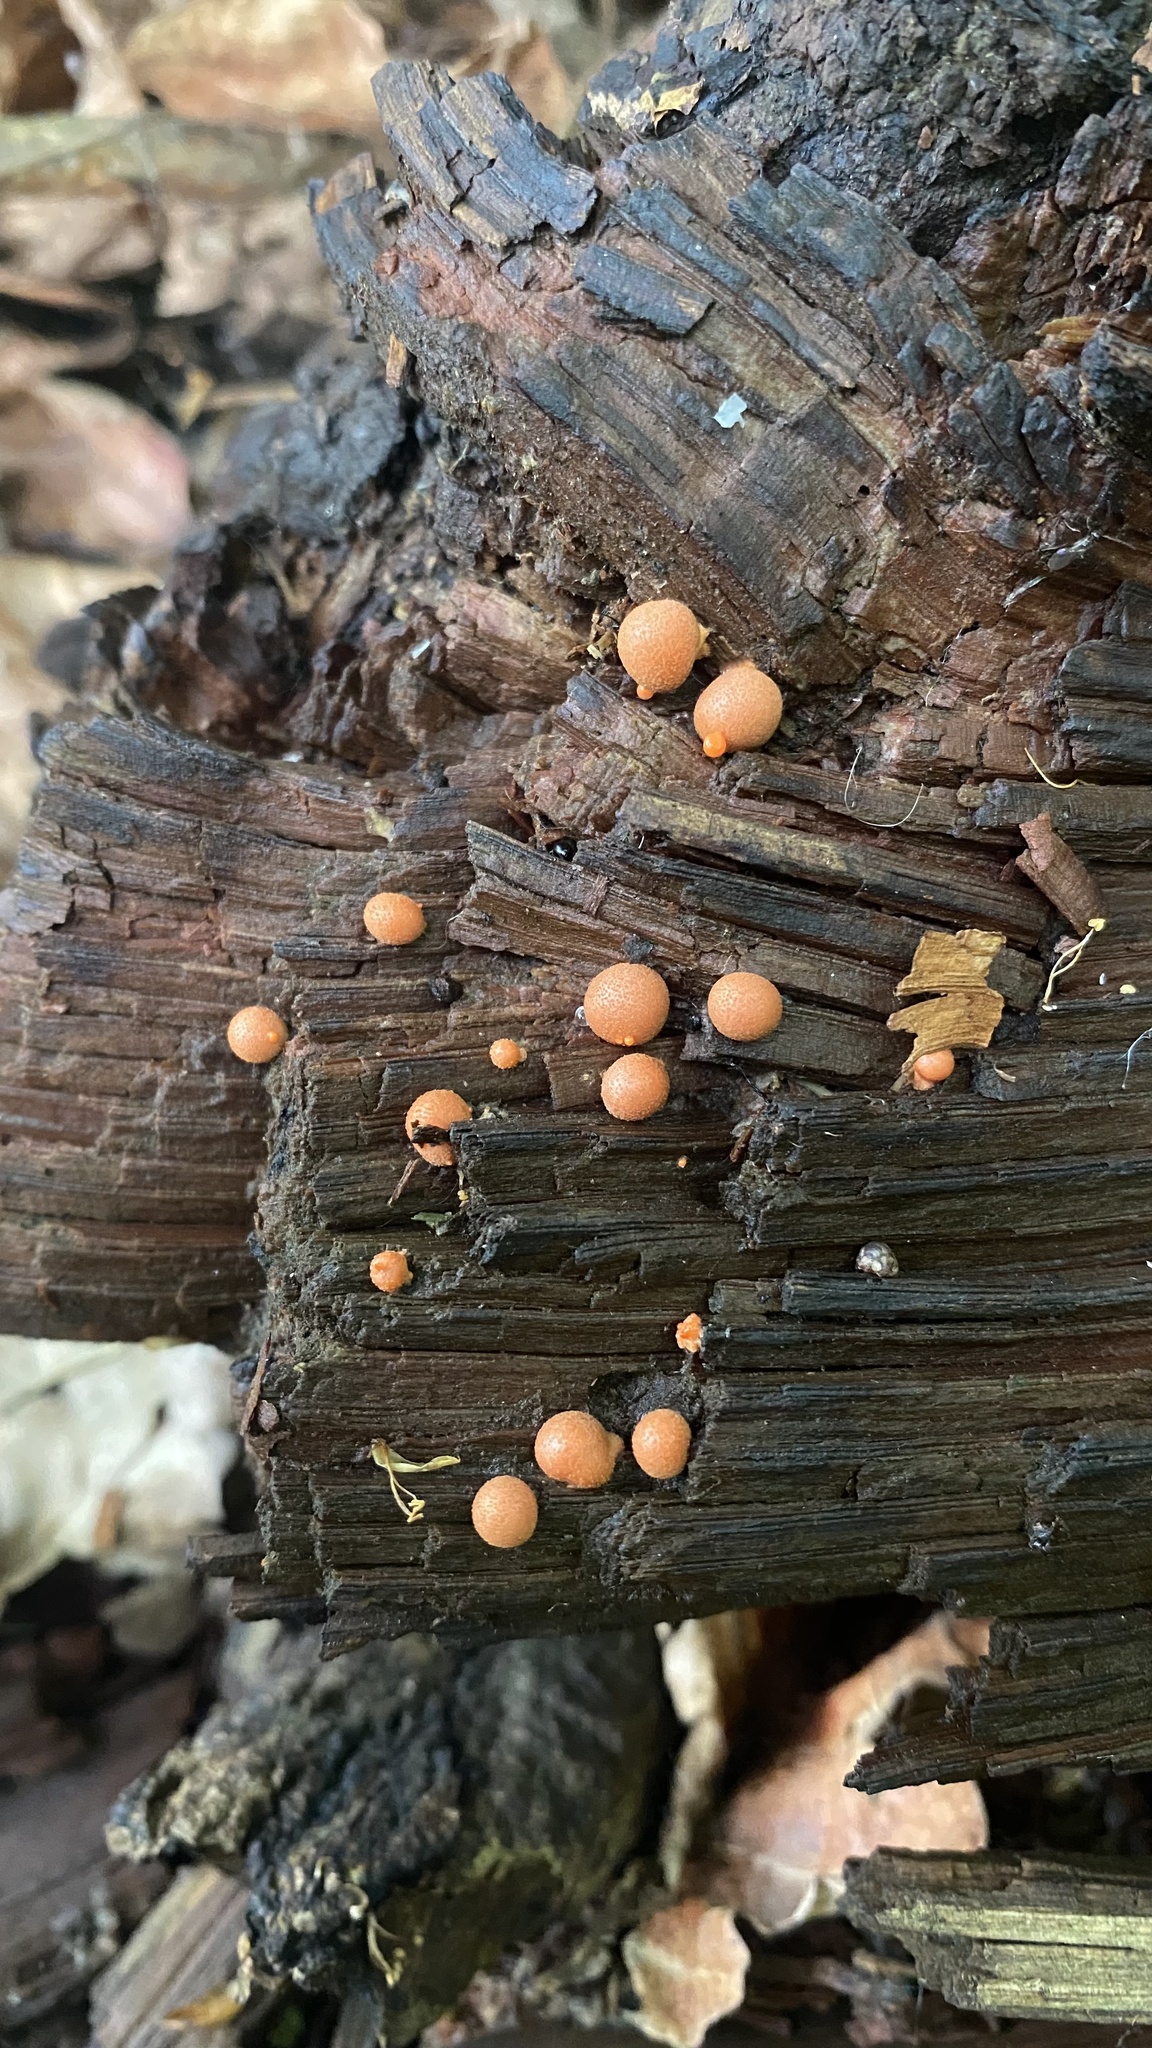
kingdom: Protozoa
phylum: Mycetozoa
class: Myxomycetes
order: Cribrariales
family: Tubiferaceae
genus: Lycogala
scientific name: Lycogala epidendrum
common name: Wolf's milk
